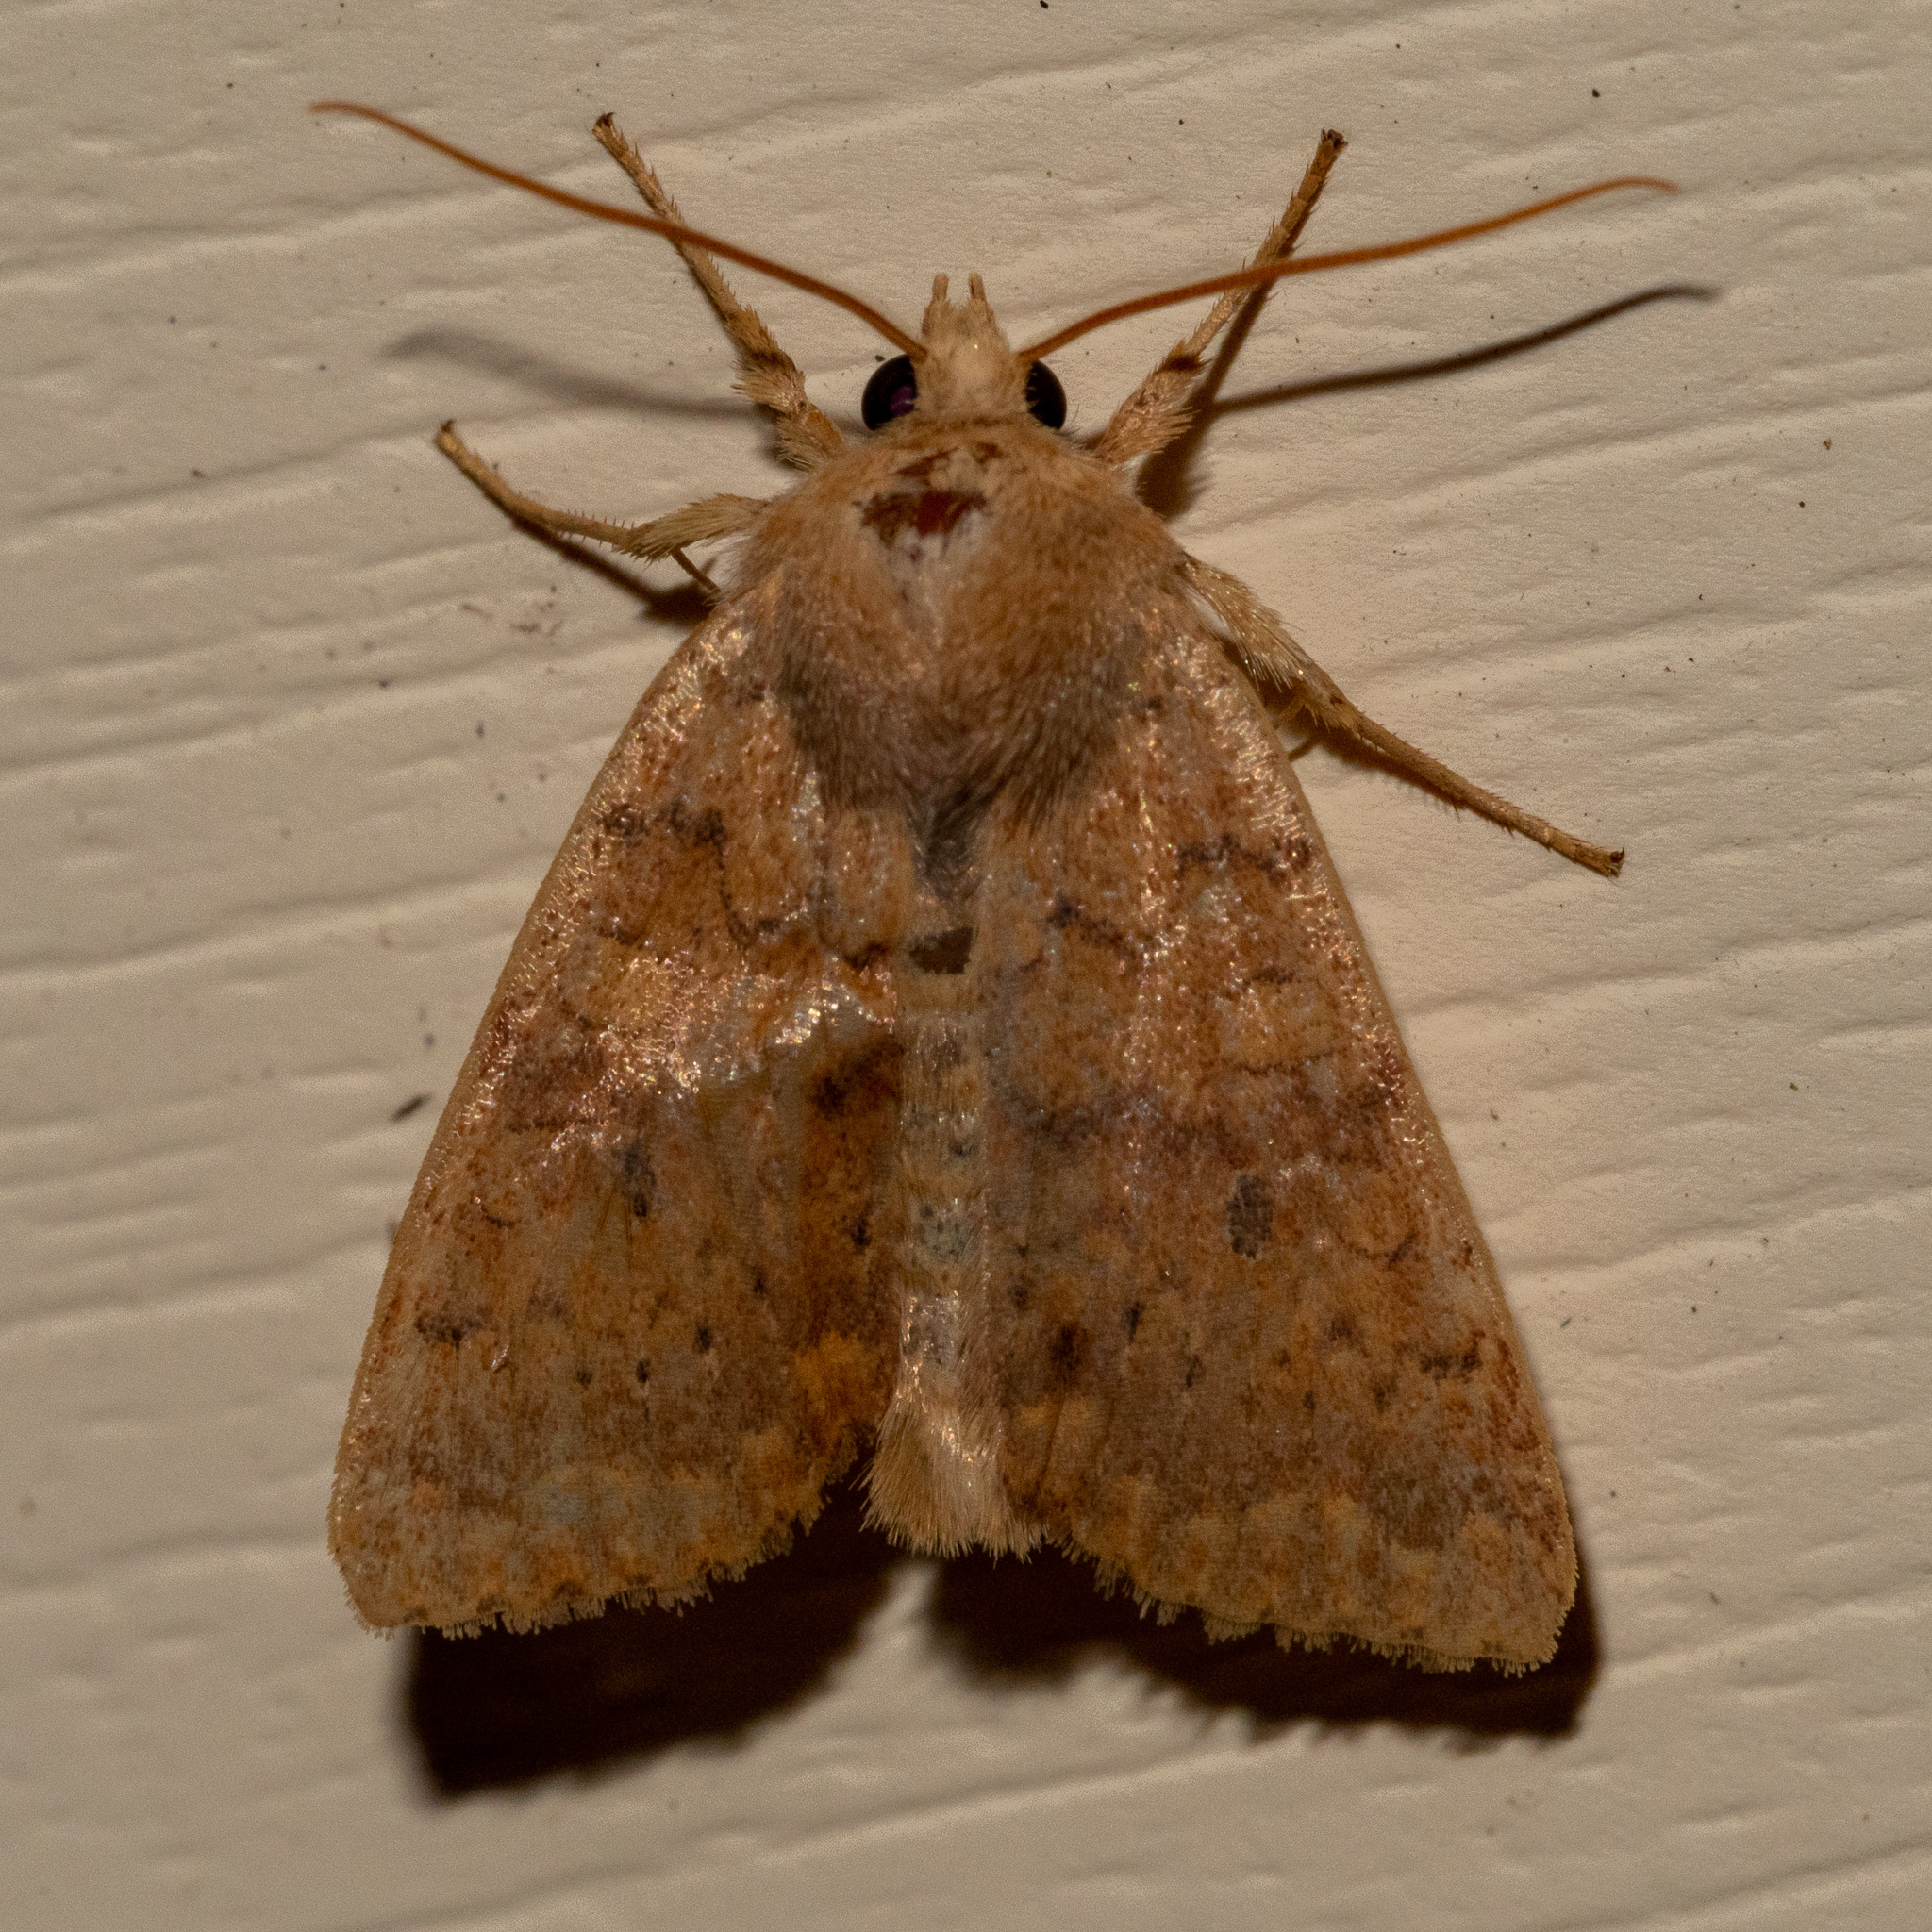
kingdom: Animalia
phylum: Arthropoda
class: Insecta
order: Lepidoptera
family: Noctuidae
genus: Agrochola
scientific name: Agrochola bicolorago
